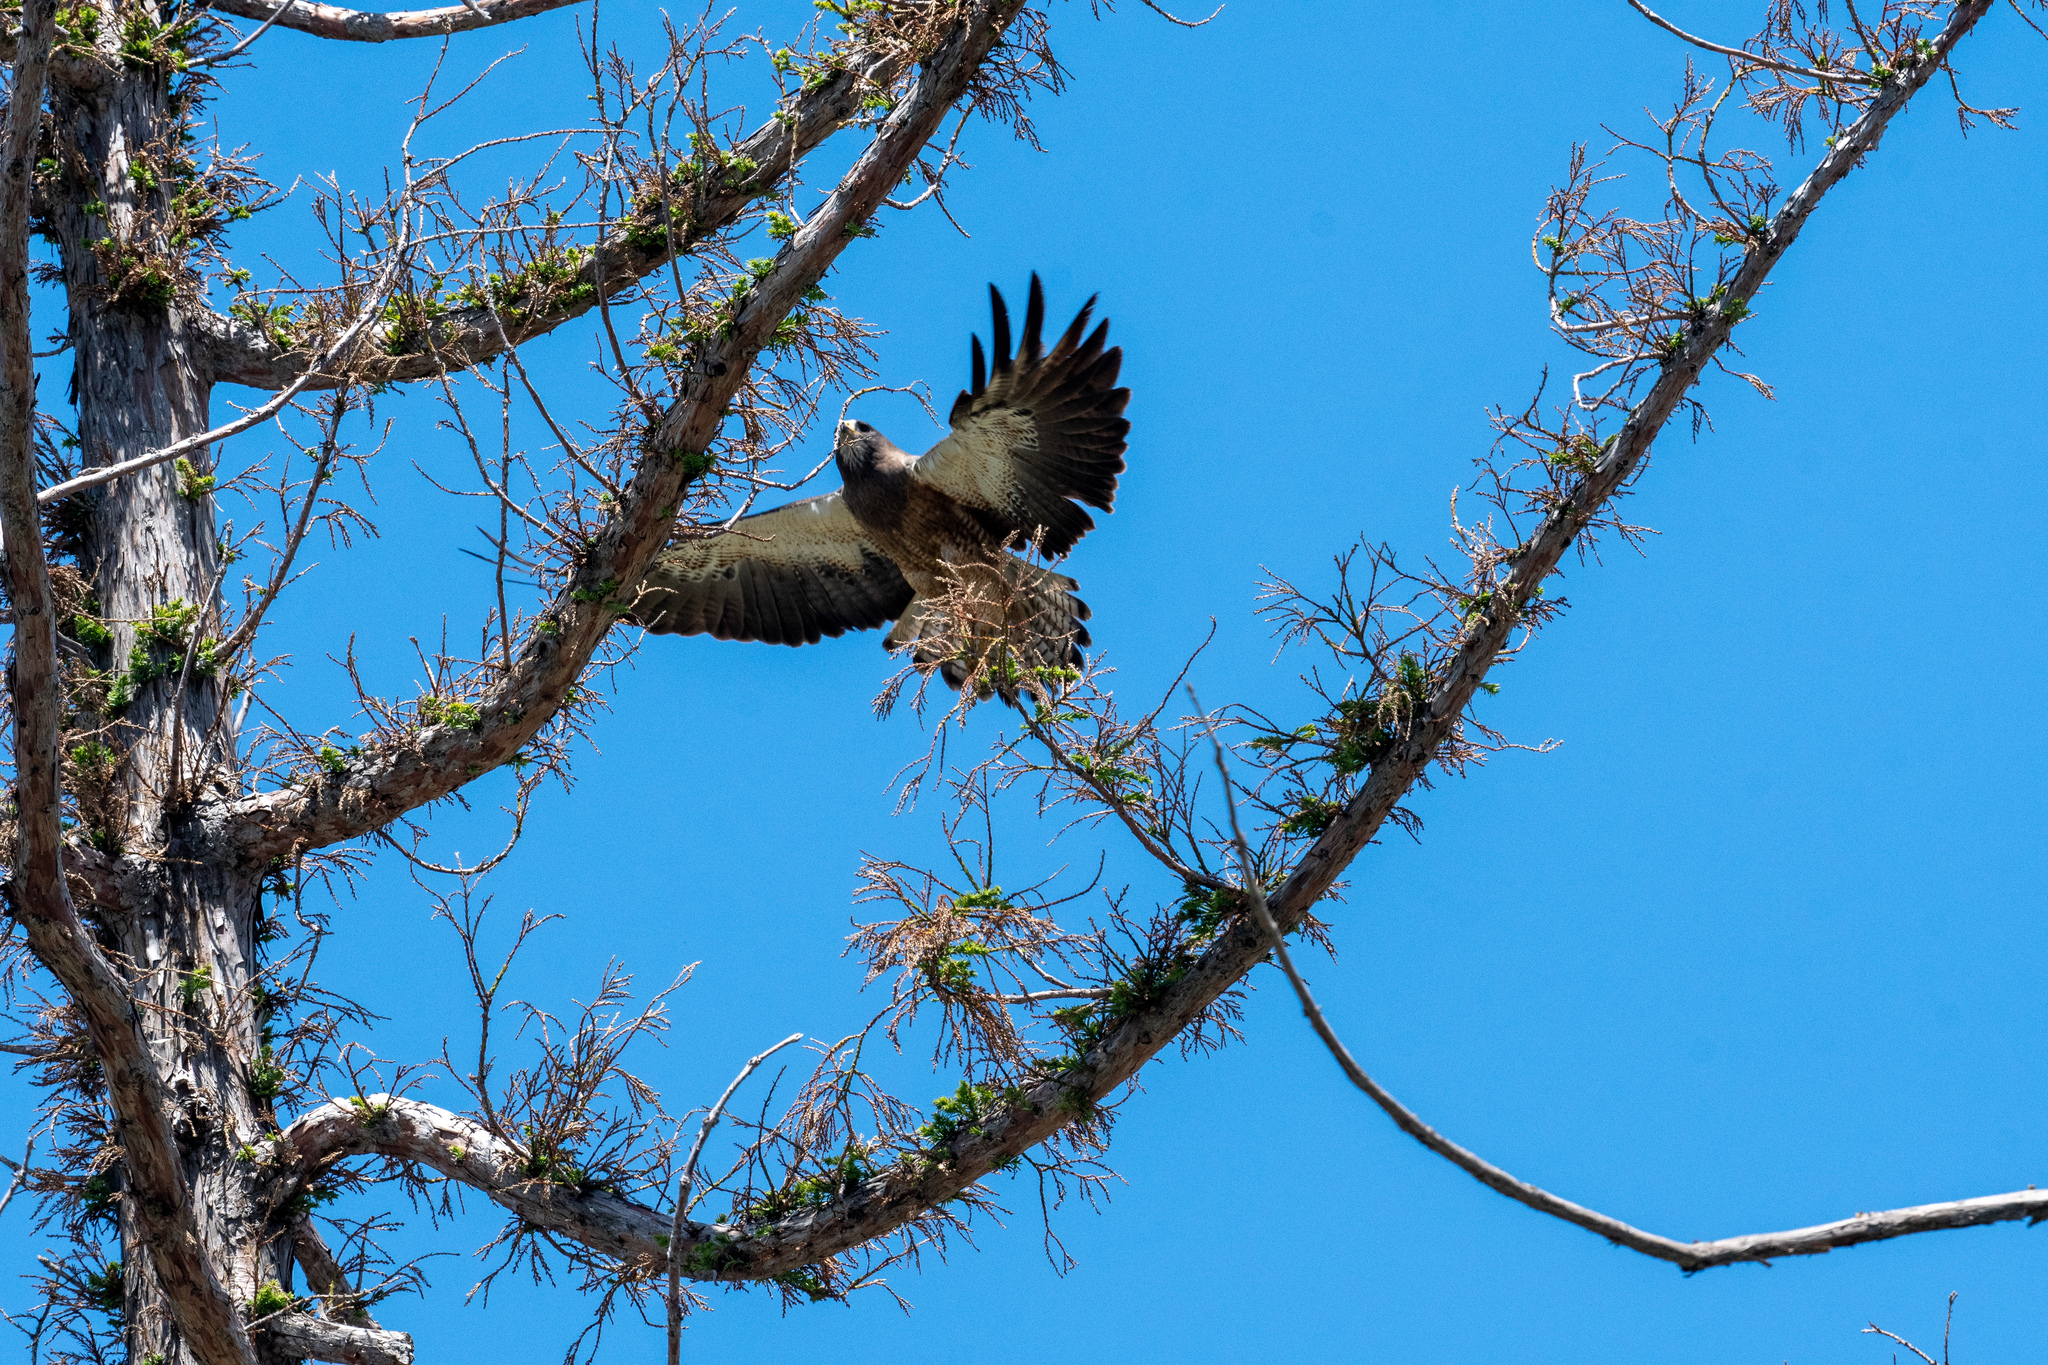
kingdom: Animalia
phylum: Chordata
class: Aves
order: Accipitriformes
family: Accipitridae
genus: Buteo
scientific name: Buteo swainsoni
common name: Swainson's hawk
